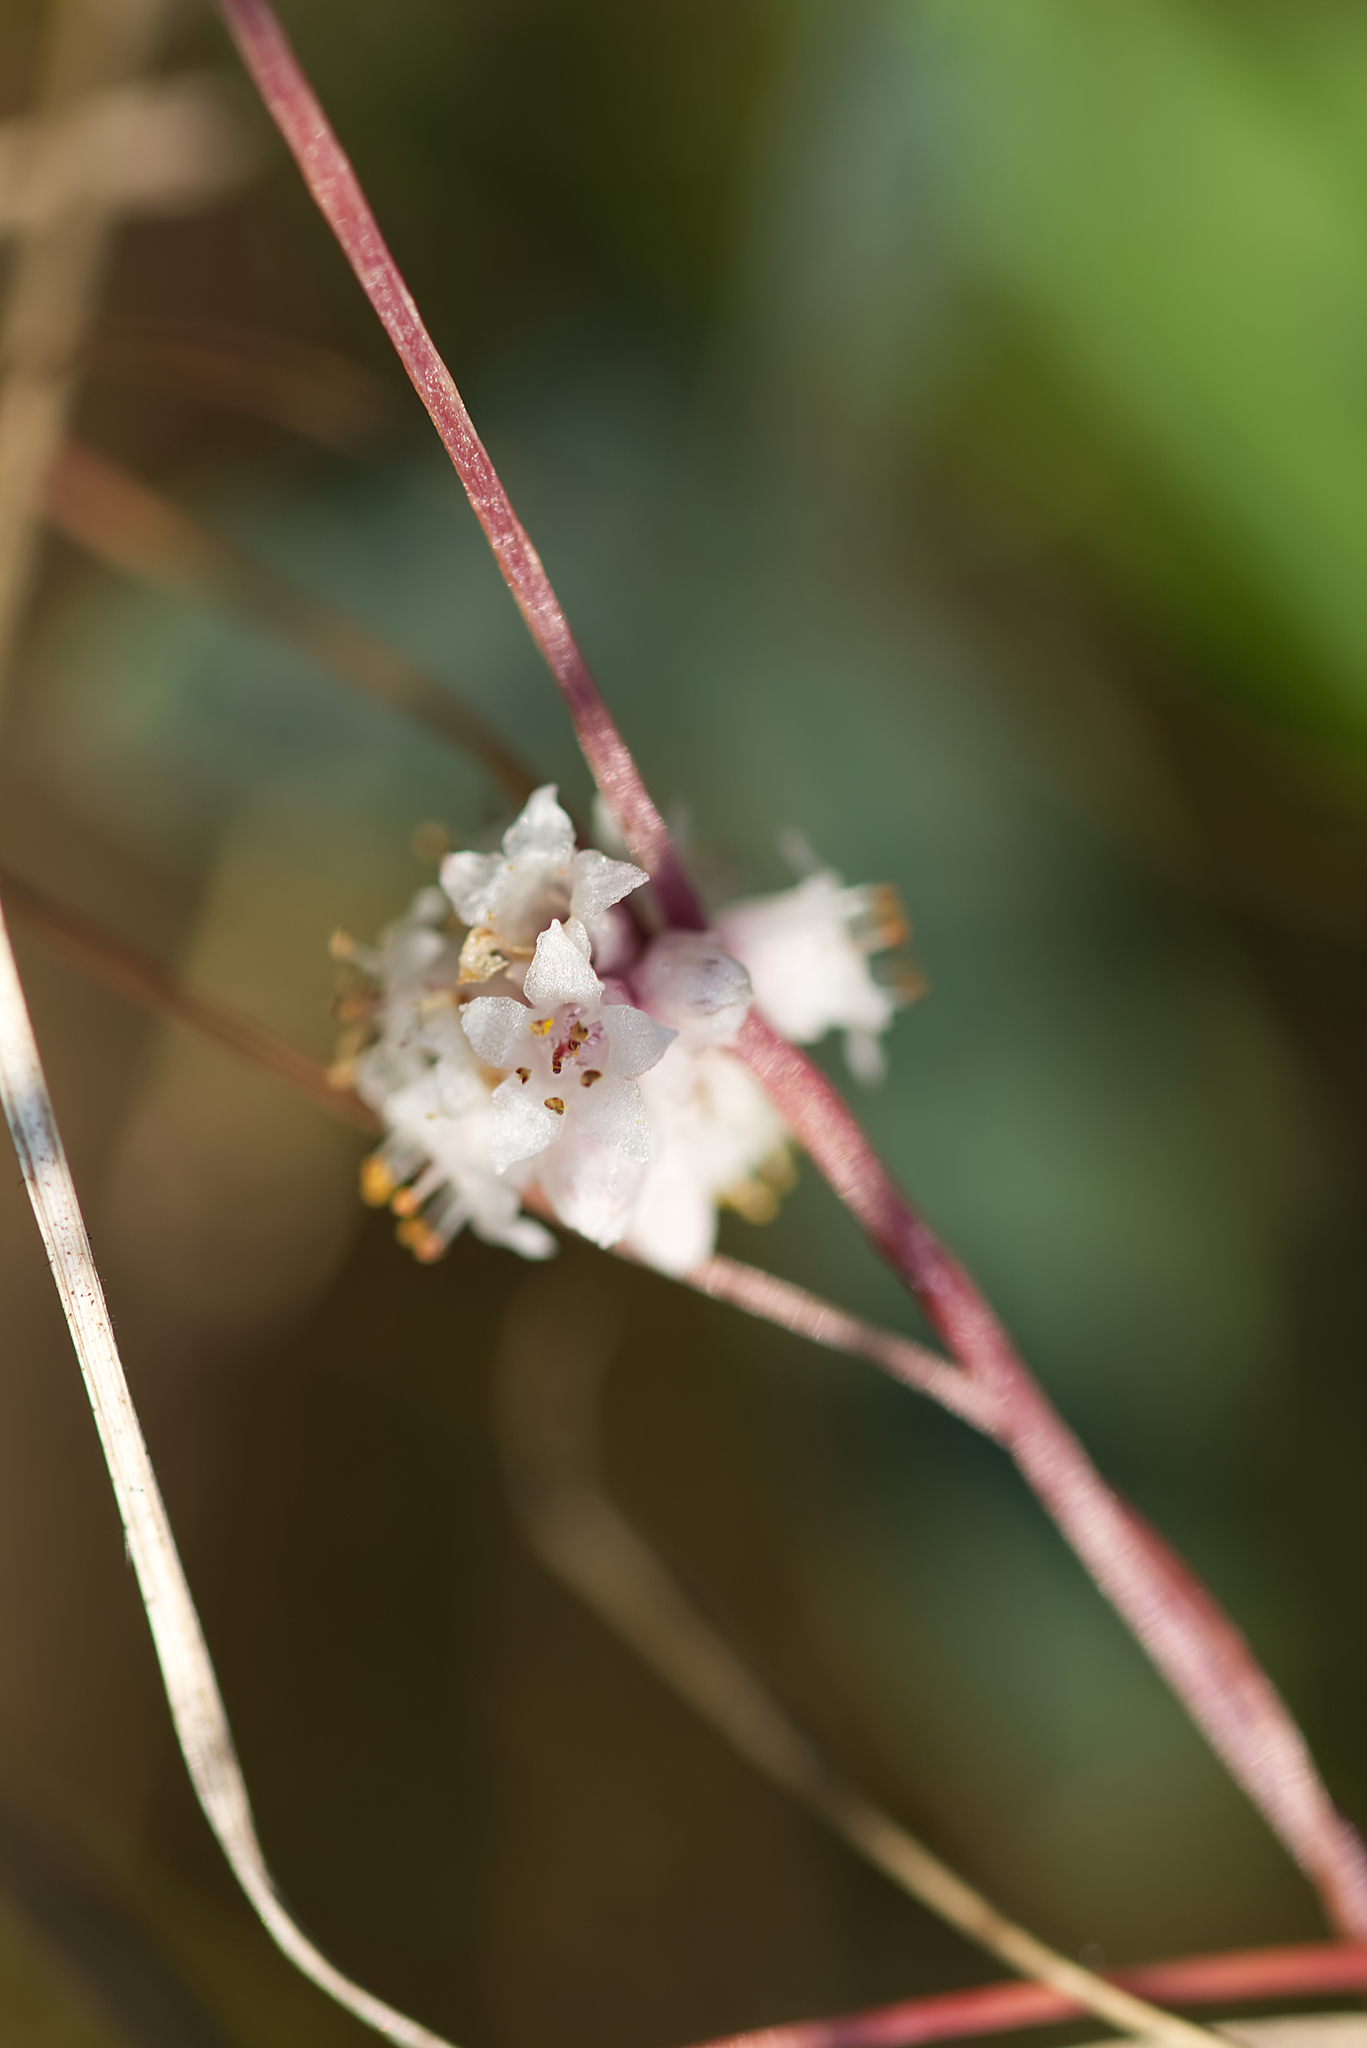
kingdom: Plantae
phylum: Tracheophyta
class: Magnoliopsida
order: Solanales
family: Convolvulaceae
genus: Cuscuta
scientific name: Cuscuta epithymum
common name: Clover dodder
